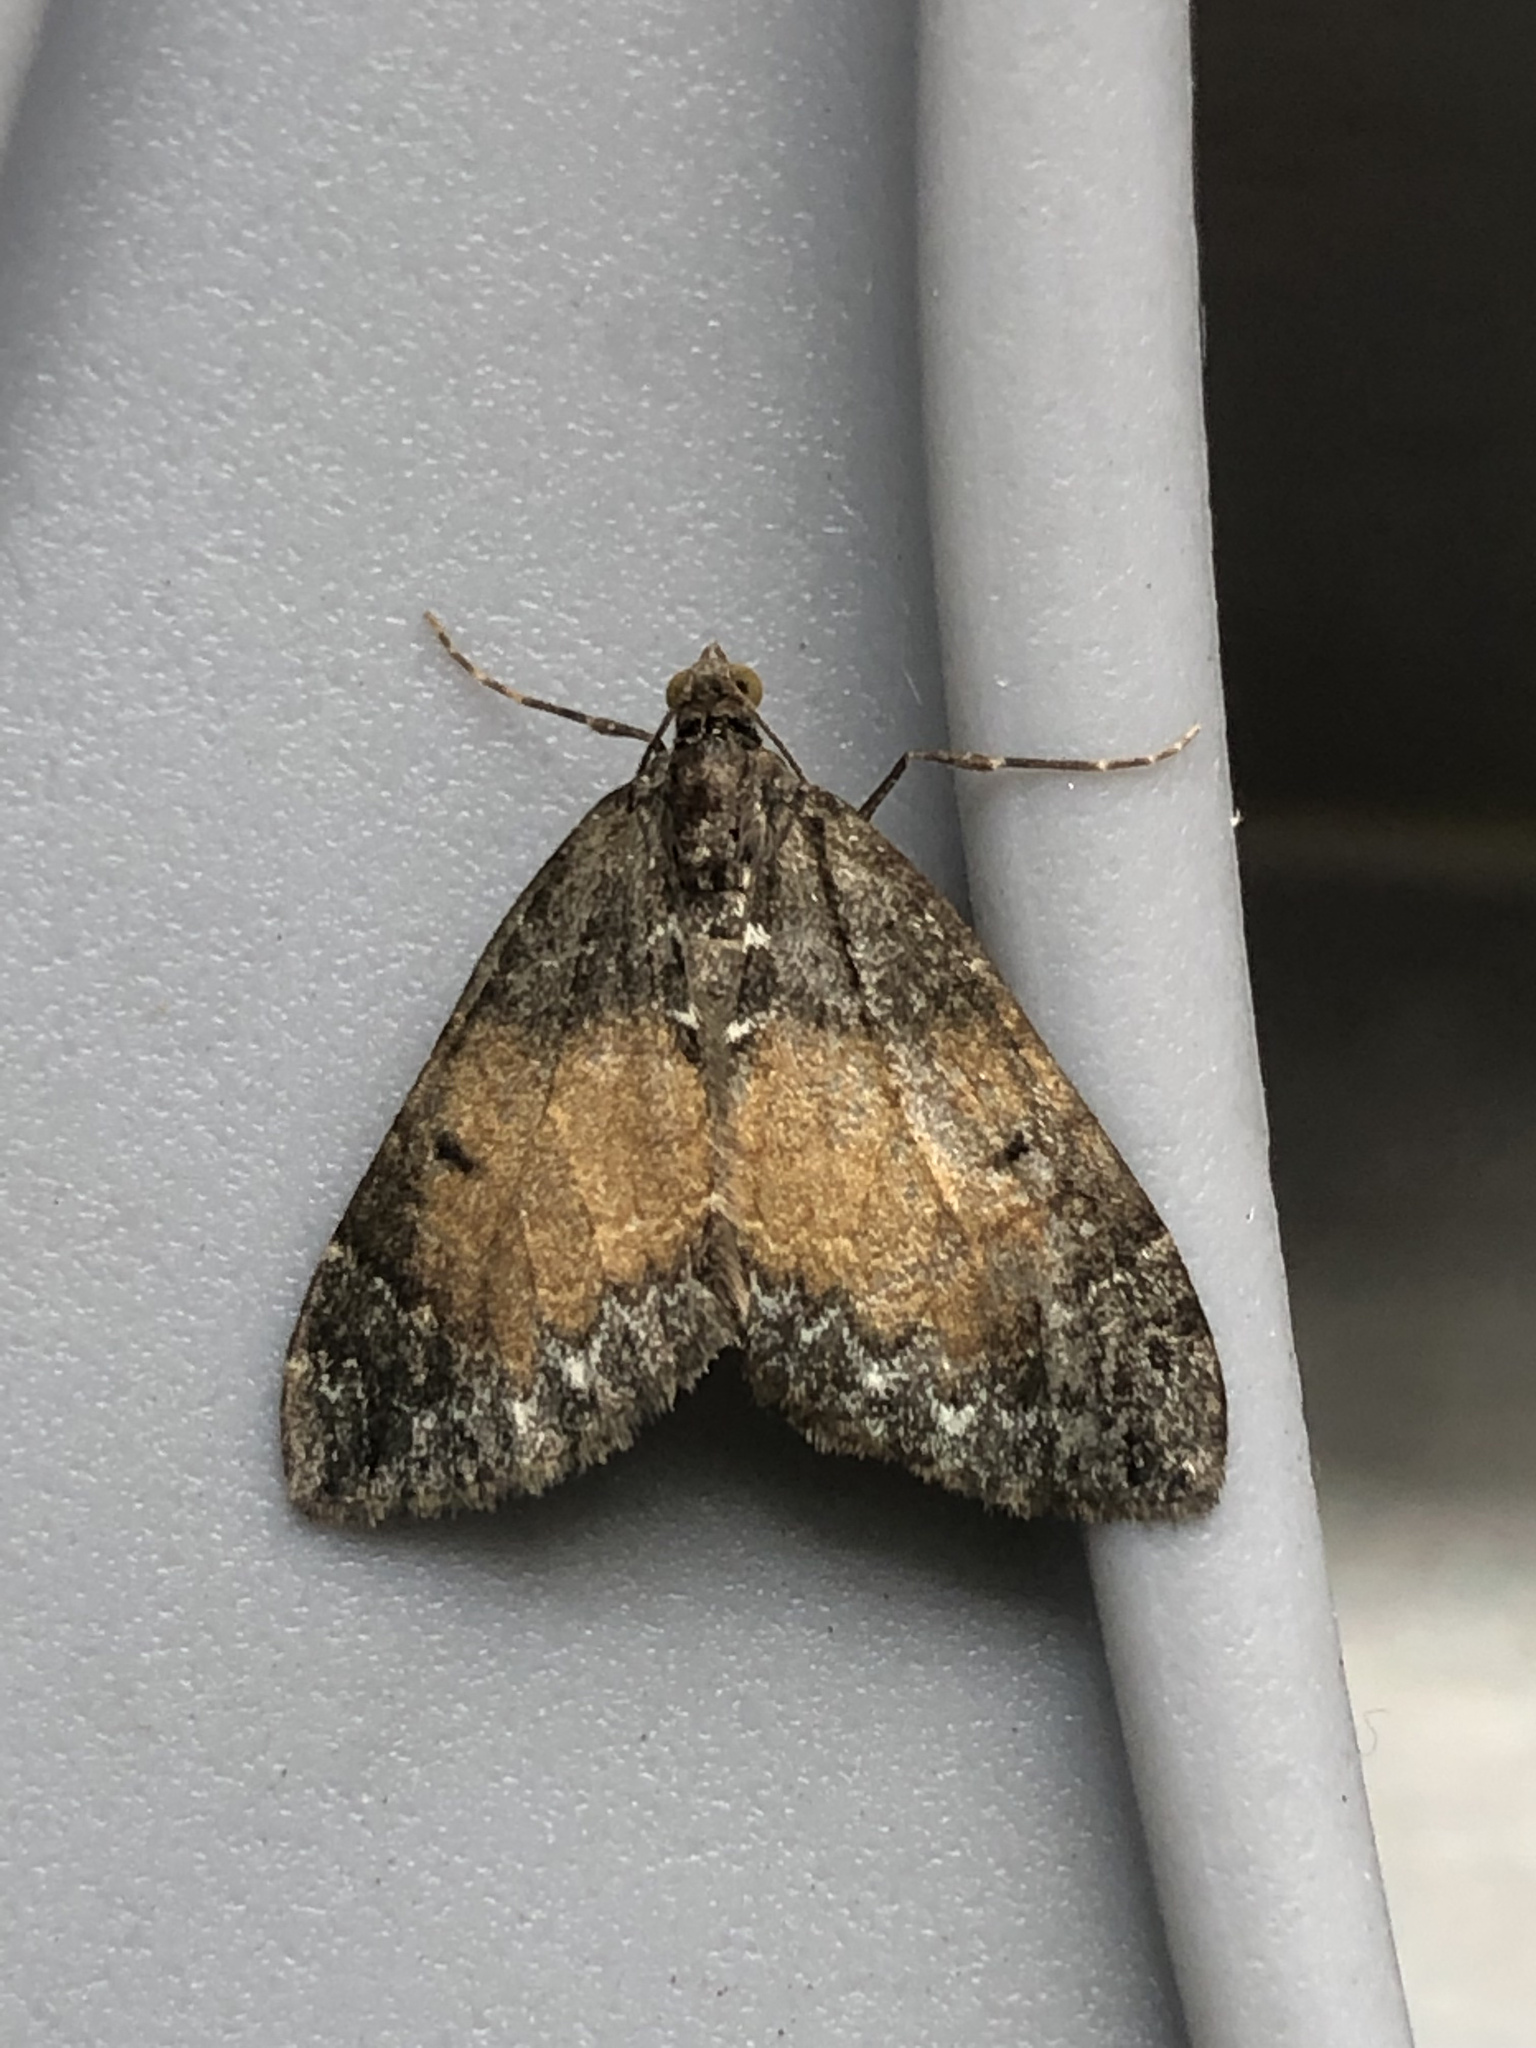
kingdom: Animalia
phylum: Arthropoda
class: Insecta
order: Lepidoptera
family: Geometridae
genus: Dysstroma
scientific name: Dysstroma truncata
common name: Common marbled carpet
